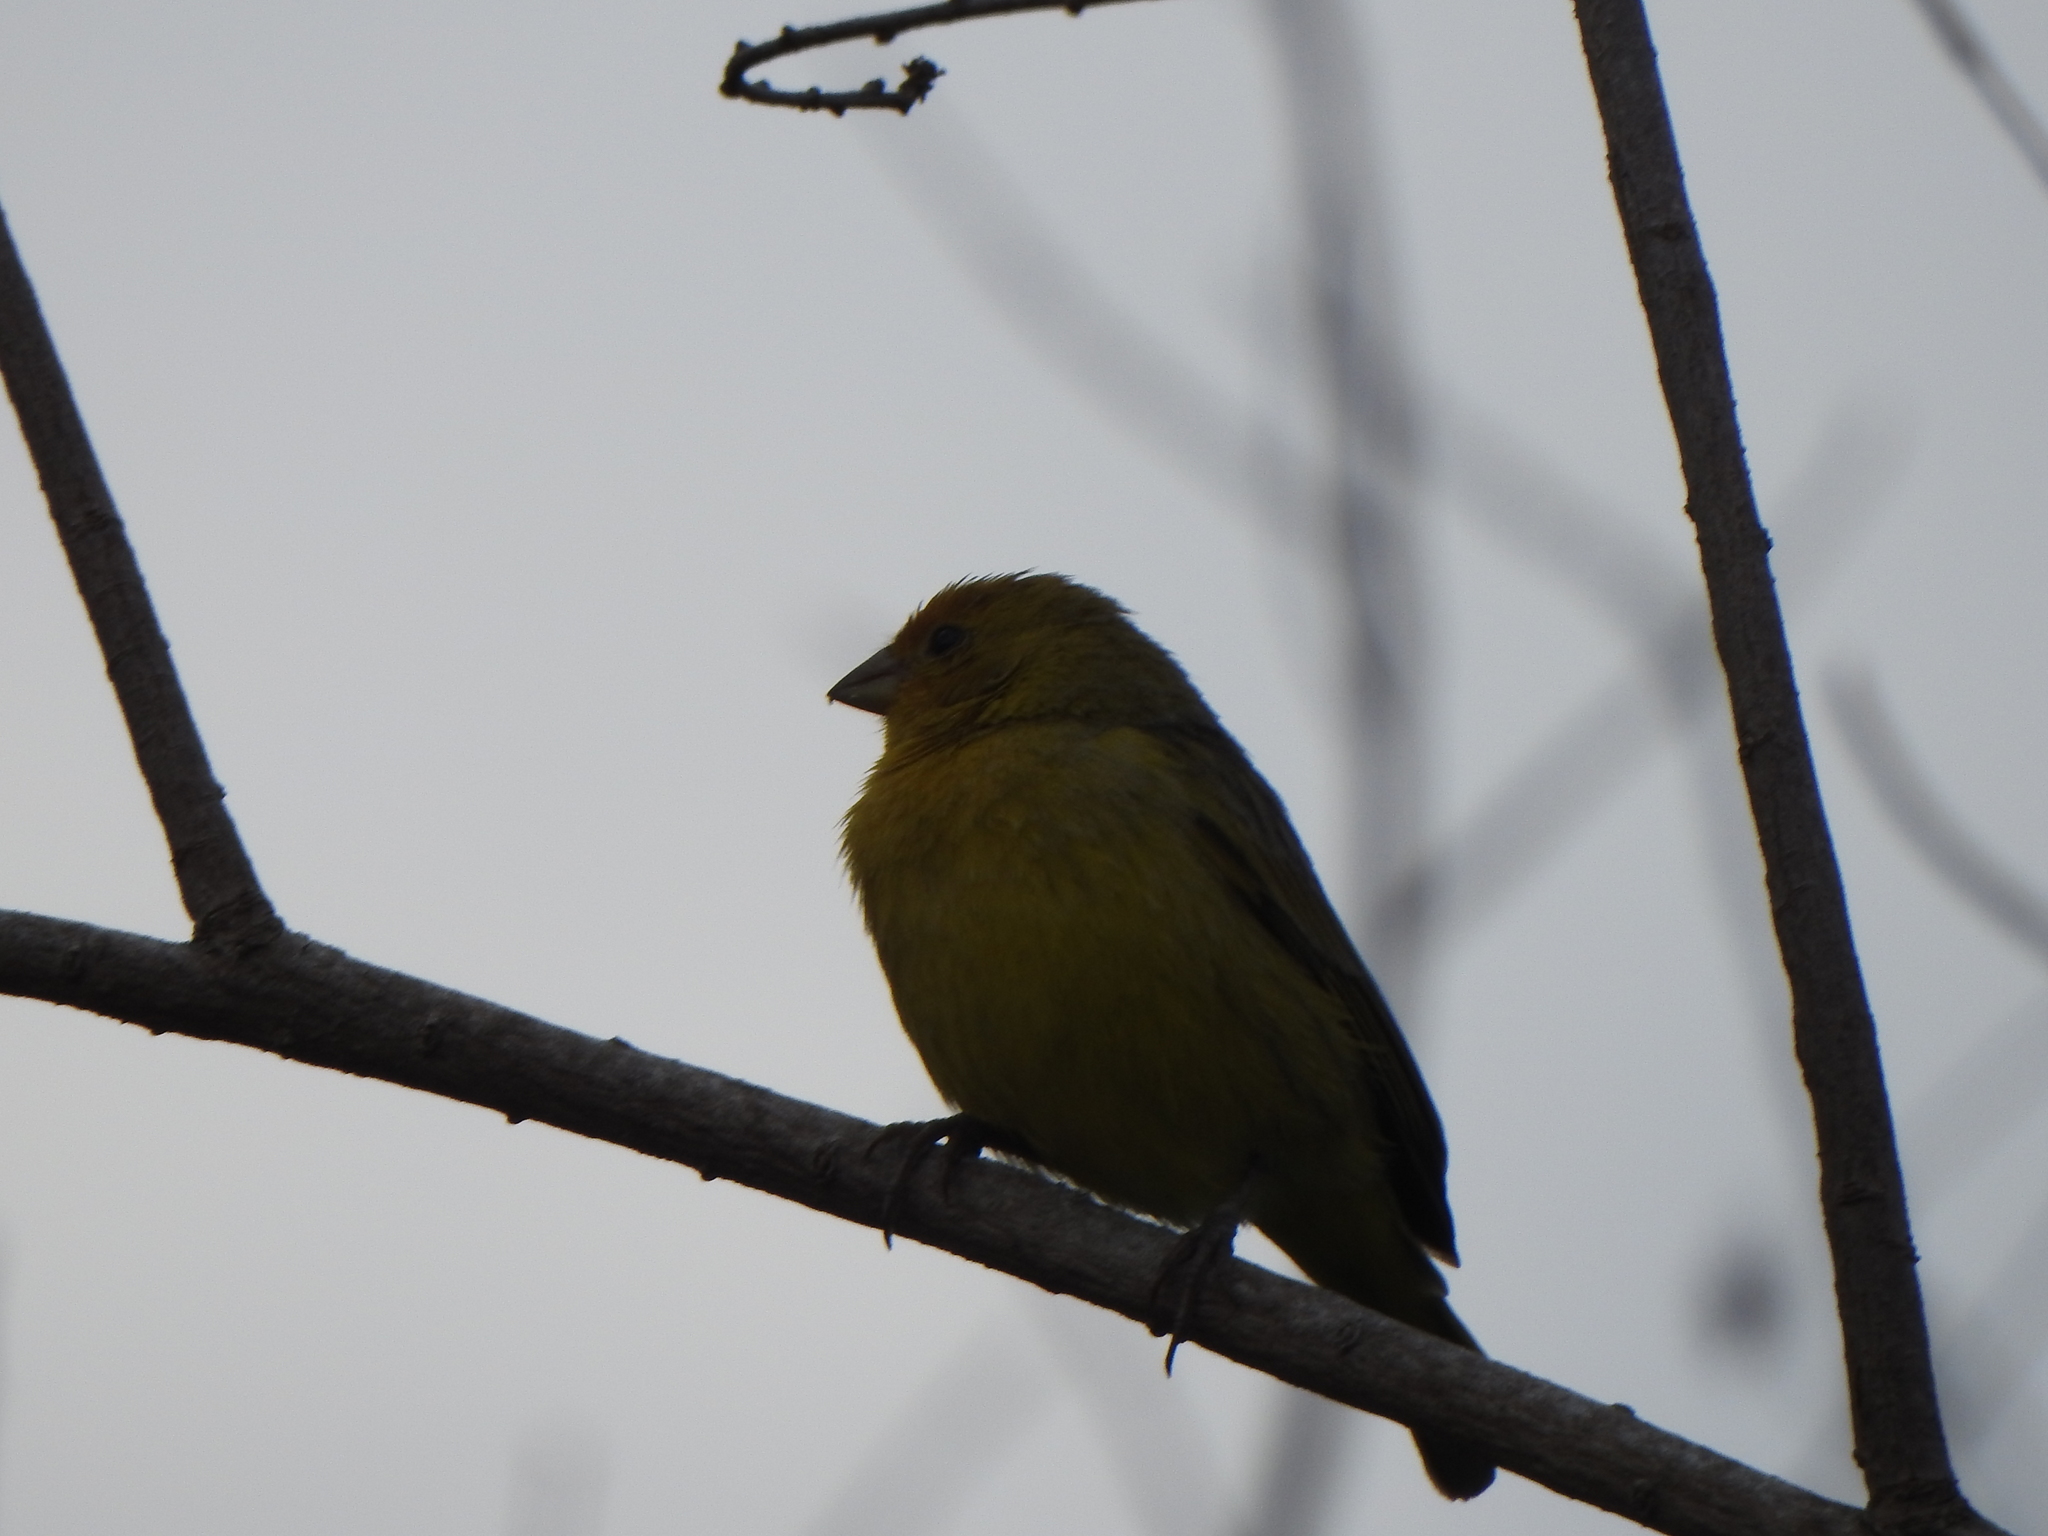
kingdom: Animalia
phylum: Chordata
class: Aves
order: Passeriformes
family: Thraupidae
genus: Sicalis
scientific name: Sicalis flaveola
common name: Saffron finch
